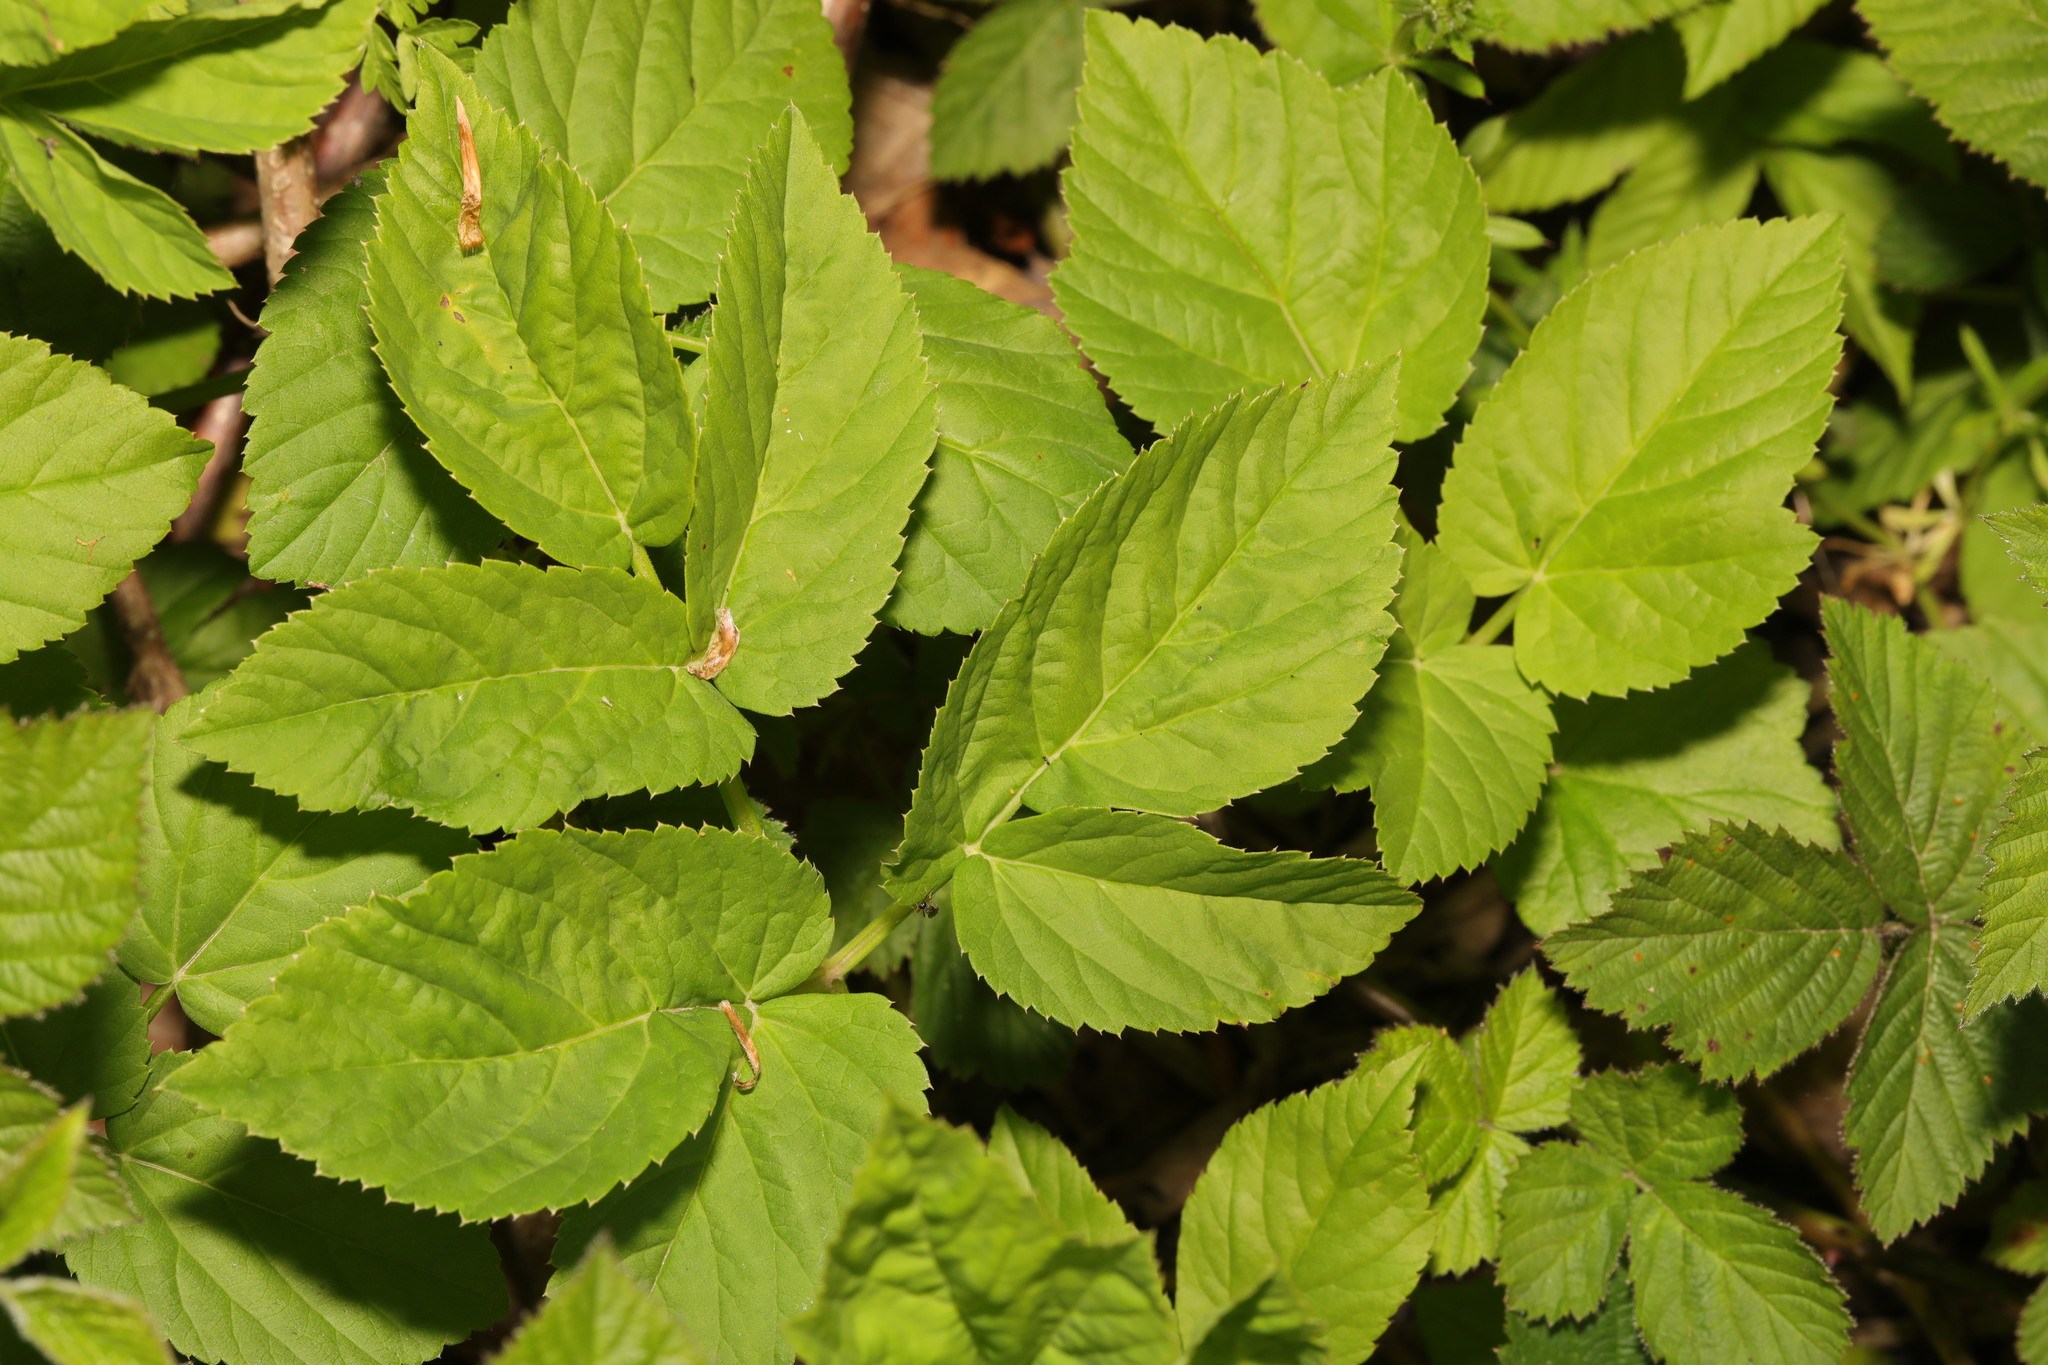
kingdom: Plantae
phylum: Tracheophyta
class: Magnoliopsida
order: Apiales
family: Apiaceae
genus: Aegopodium
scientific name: Aegopodium podagraria
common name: Ground-elder
